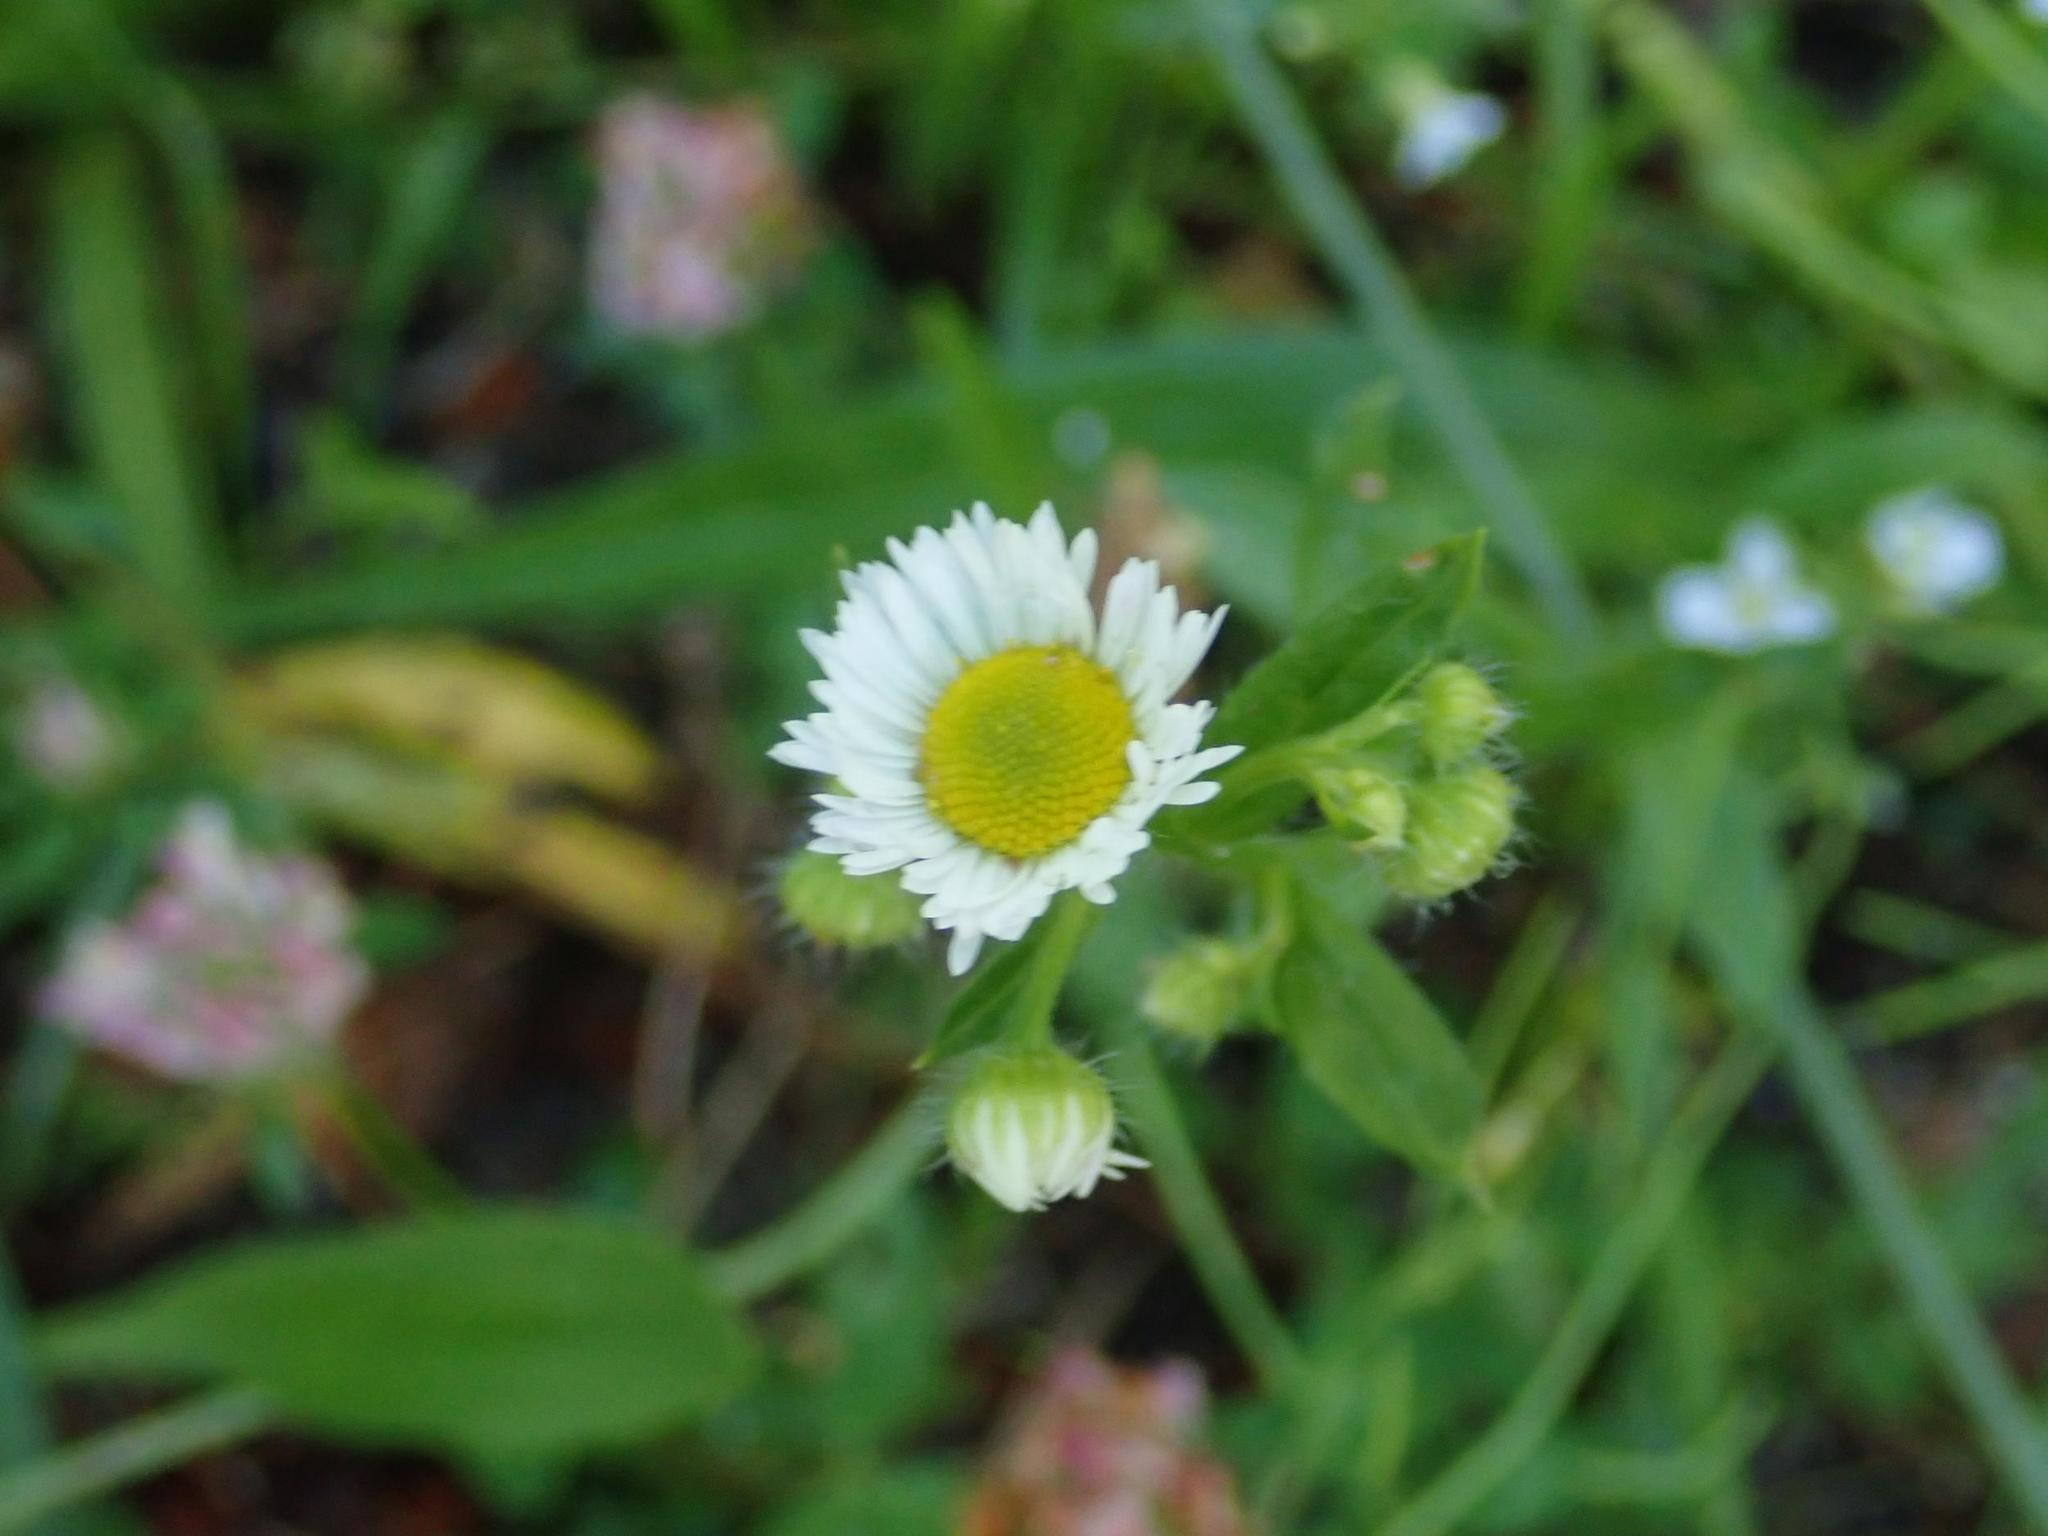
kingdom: Plantae
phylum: Tracheophyta
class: Magnoliopsida
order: Asterales
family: Asteraceae
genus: Erigeron
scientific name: Erigeron annuus
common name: Tall fleabane
